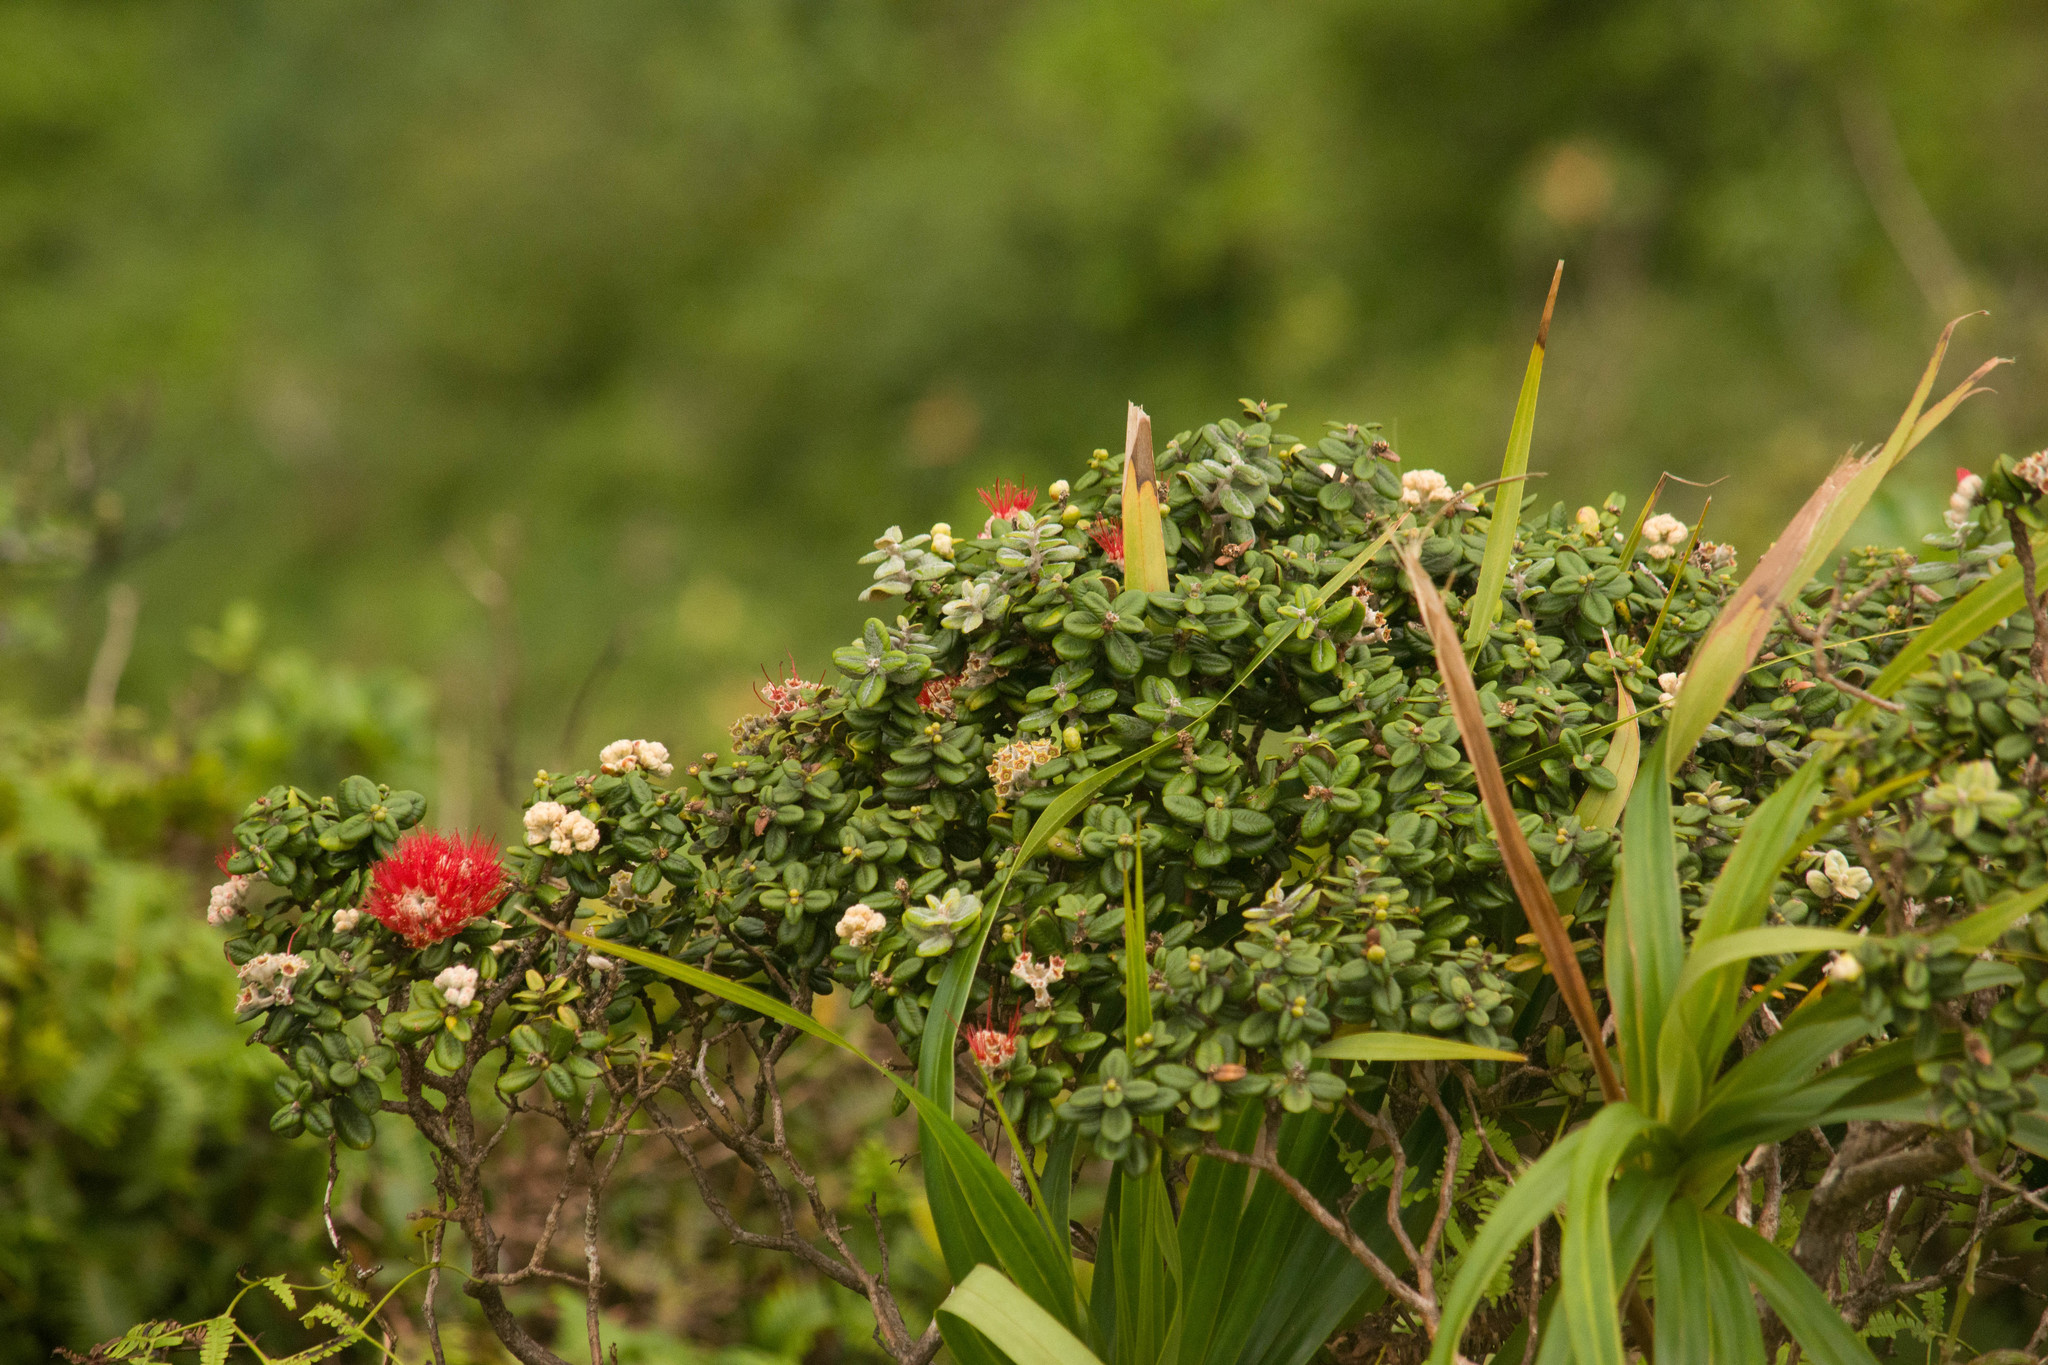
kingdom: Plantae
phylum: Tracheophyta
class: Magnoliopsida
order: Myrtales
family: Myrtaceae
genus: Metrosideros
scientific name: Metrosideros rugosa
